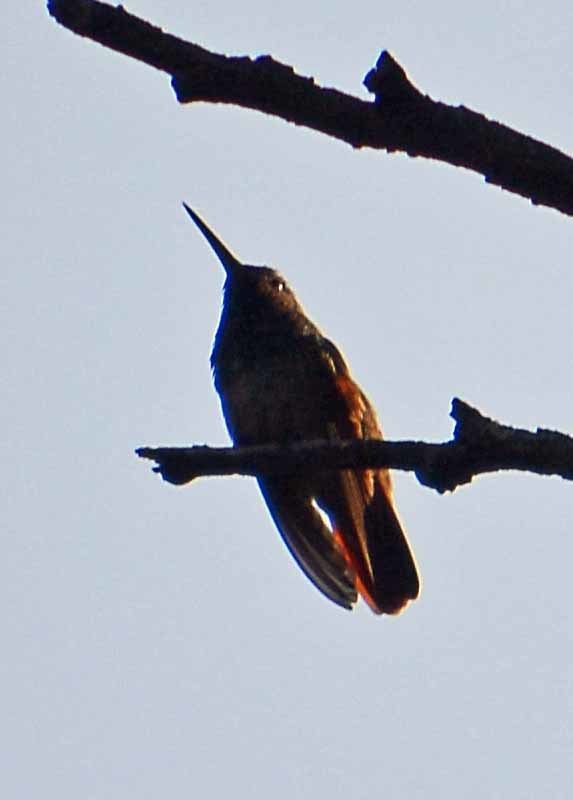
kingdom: Animalia
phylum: Chordata
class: Aves
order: Apodiformes
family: Trochilidae
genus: Saucerottia
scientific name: Saucerottia beryllina
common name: Berylline hummingbird
